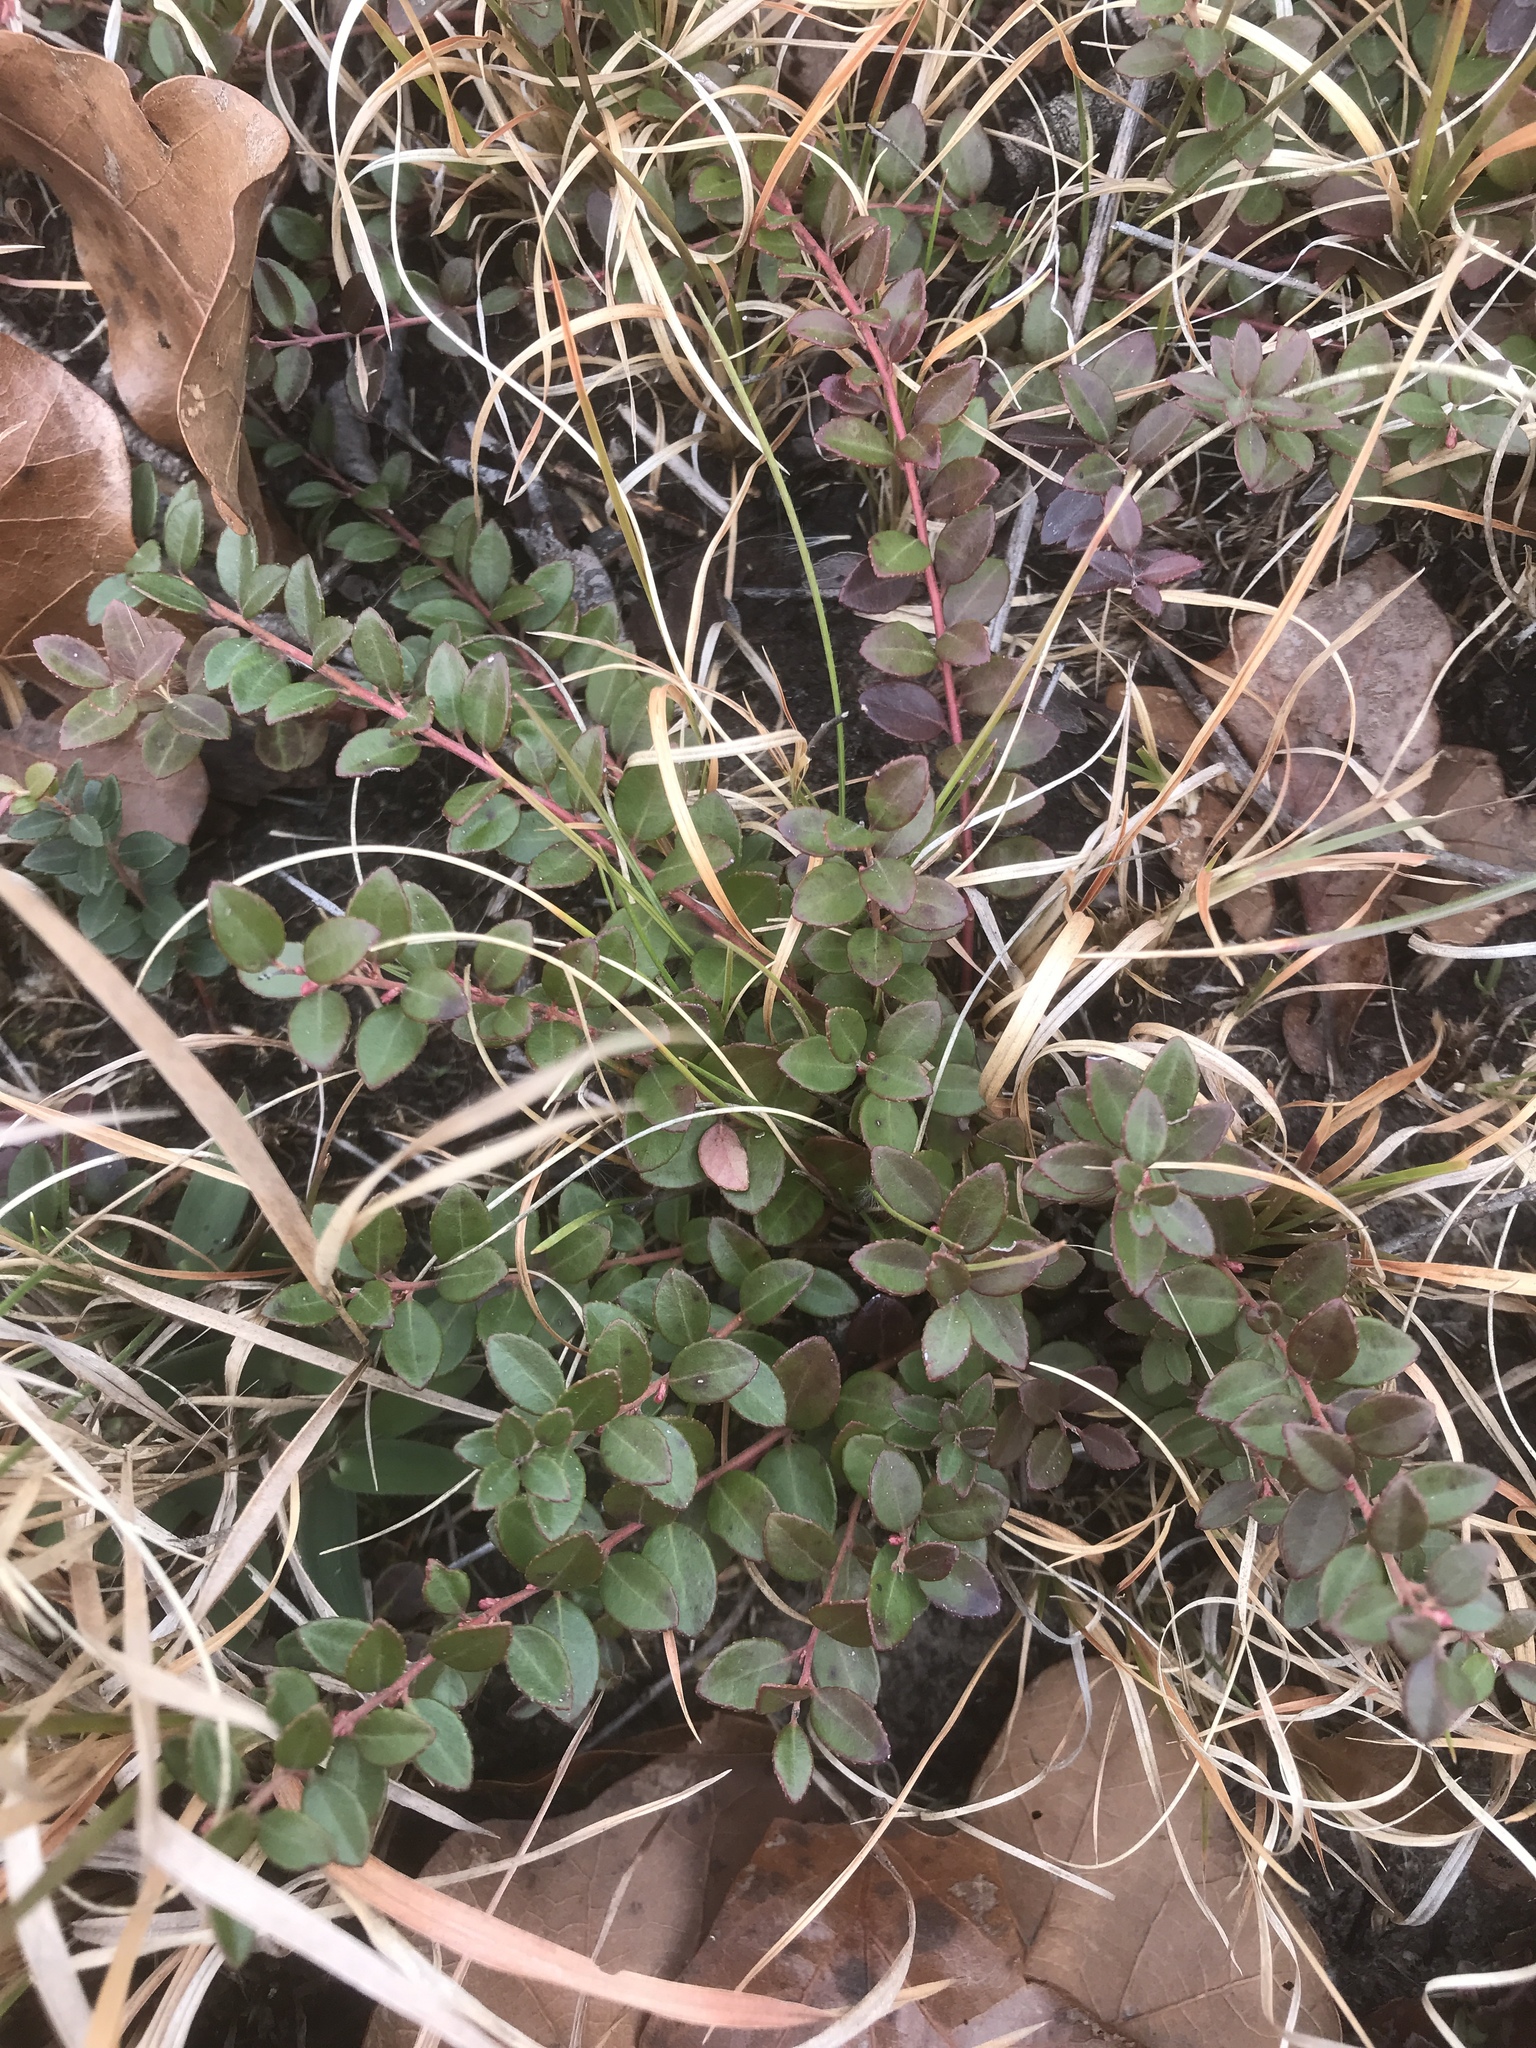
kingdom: Plantae
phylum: Tracheophyta
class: Magnoliopsida
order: Ericales
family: Ericaceae
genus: Vaccinium
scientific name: Vaccinium crassifolium
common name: Creeping blueberry
